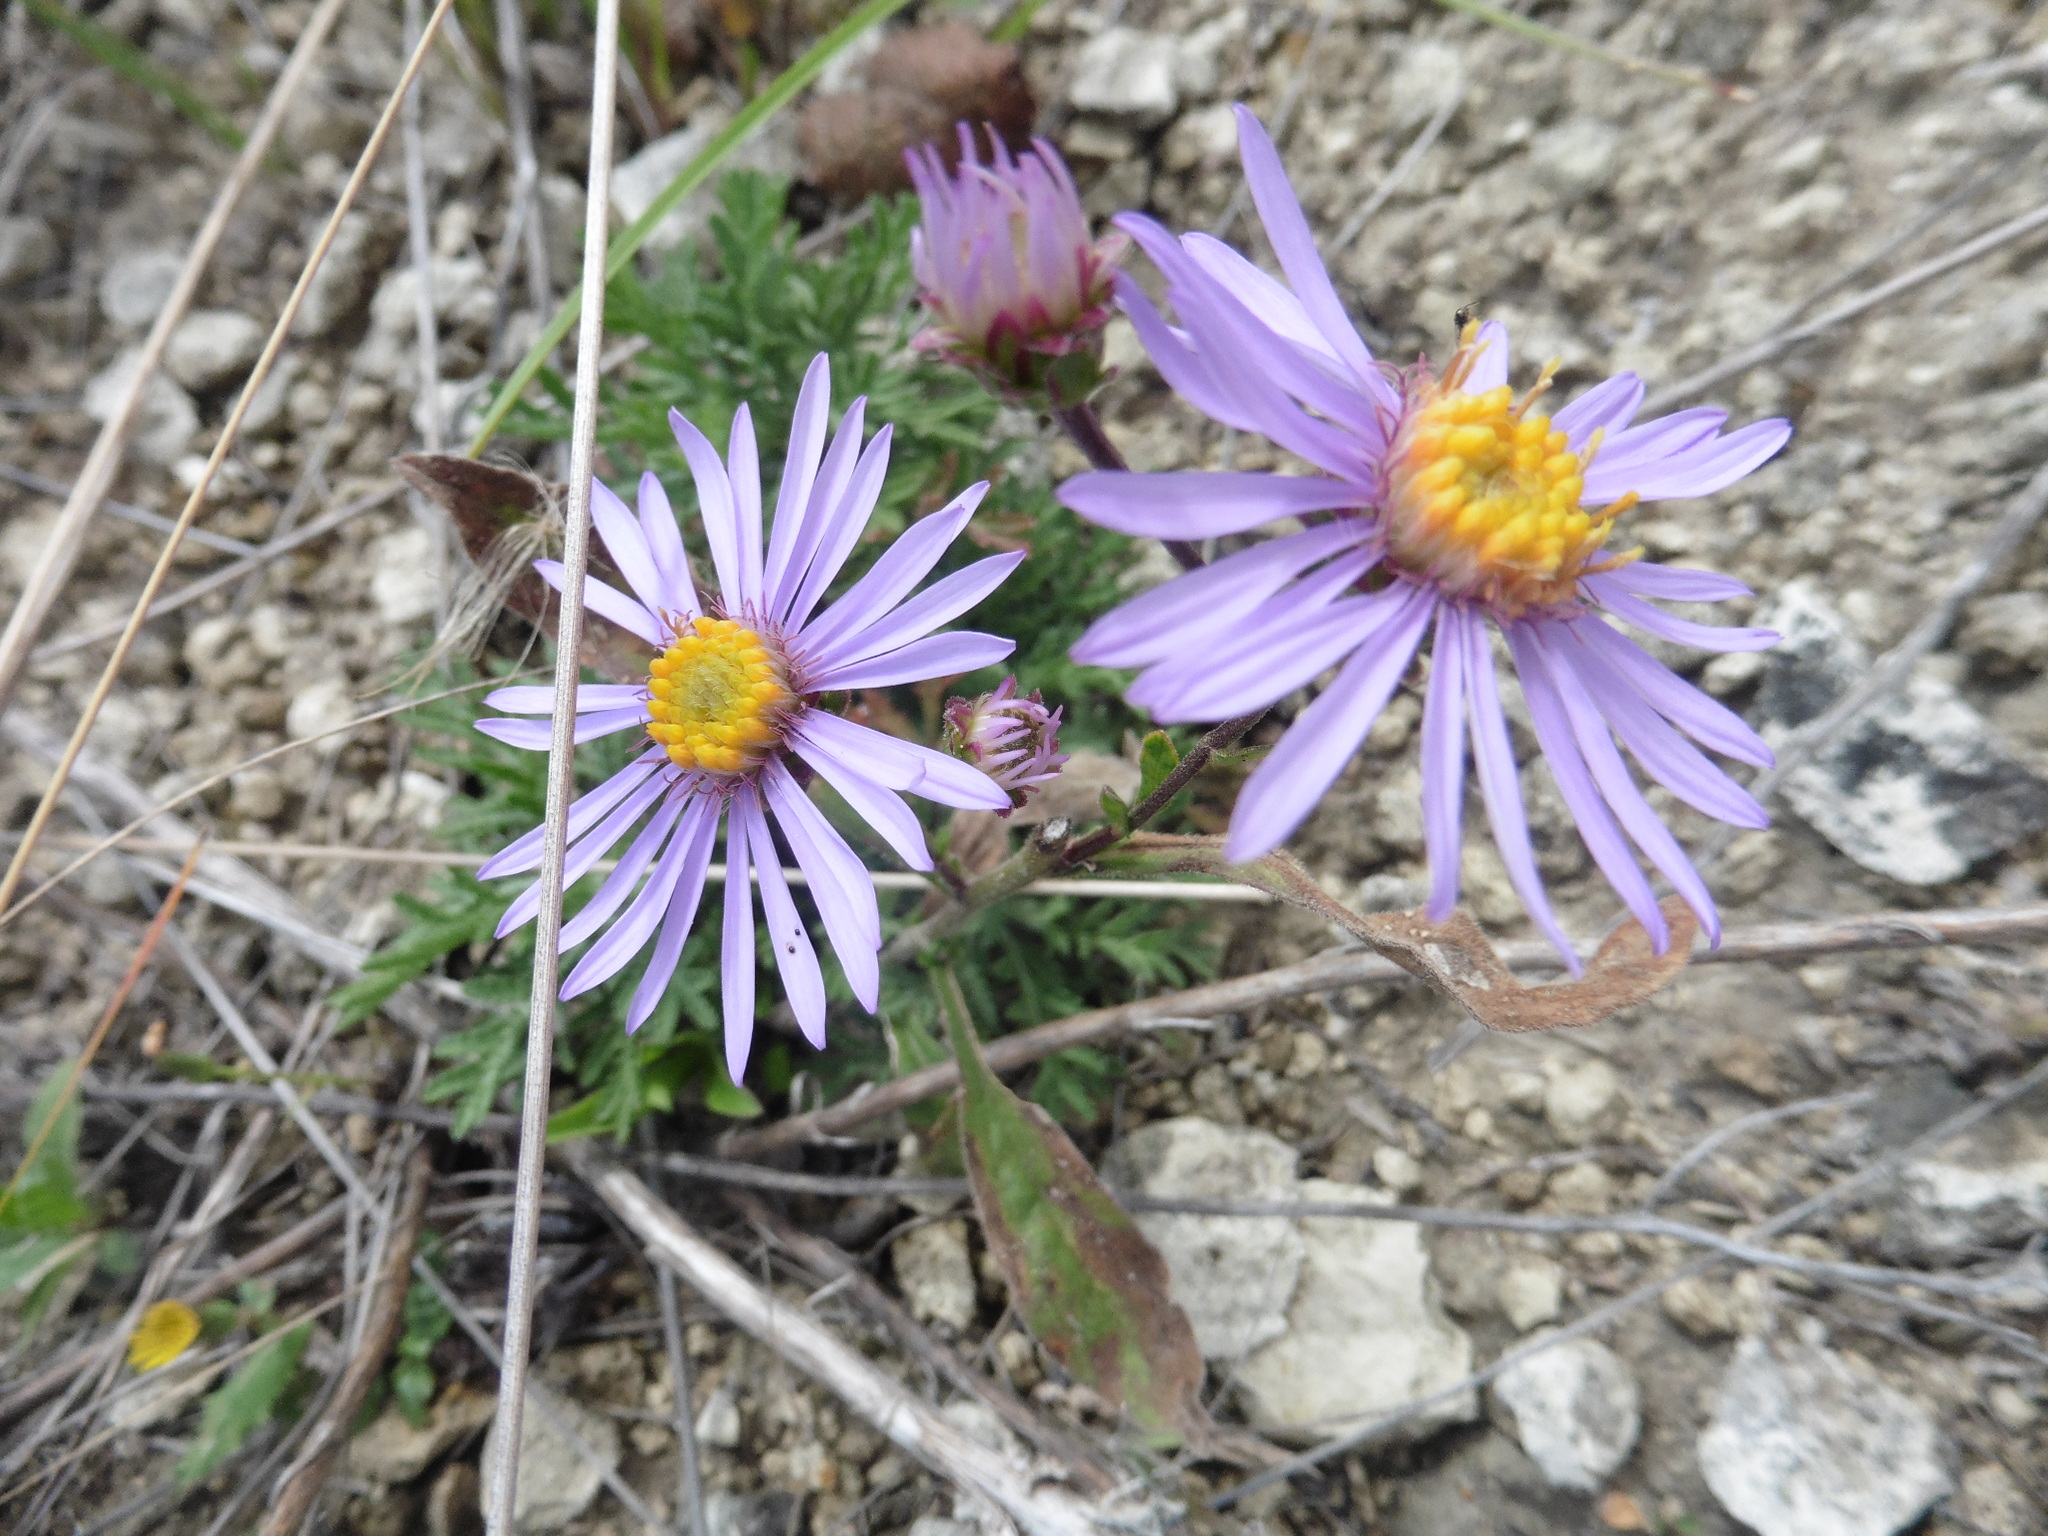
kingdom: Plantae
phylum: Tracheophyta
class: Magnoliopsida
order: Asterales
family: Asteraceae
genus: Aster
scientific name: Aster amellus
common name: European michaelmas daisy
